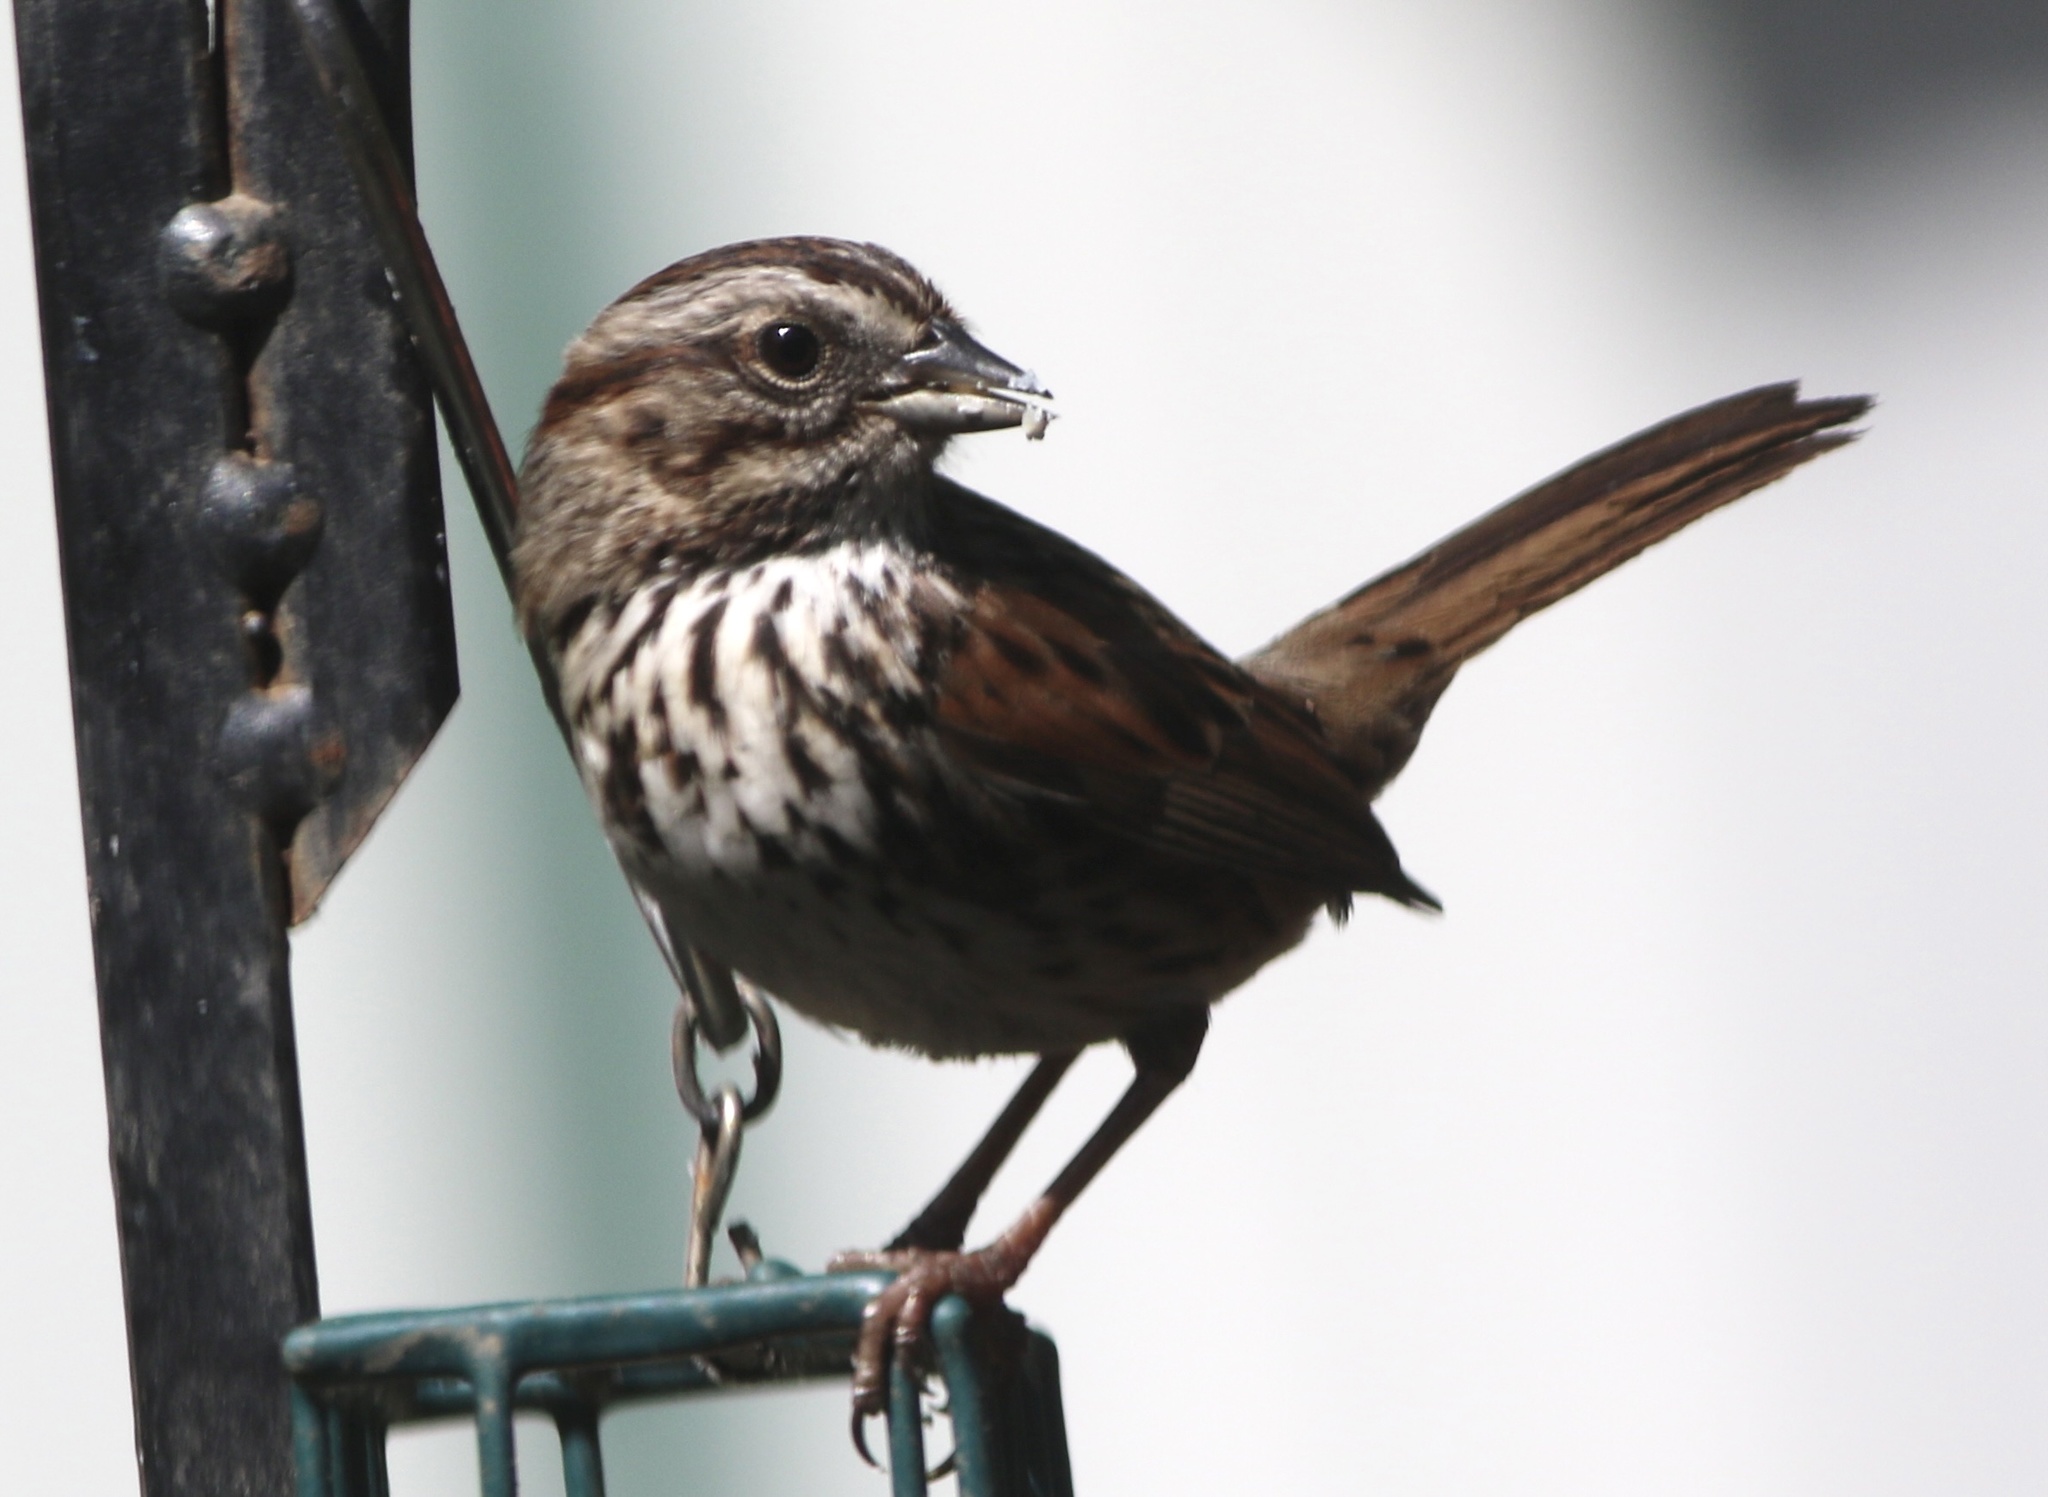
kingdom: Animalia
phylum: Chordata
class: Aves
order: Passeriformes
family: Passerellidae
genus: Melospiza
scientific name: Melospiza melodia
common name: Song sparrow
